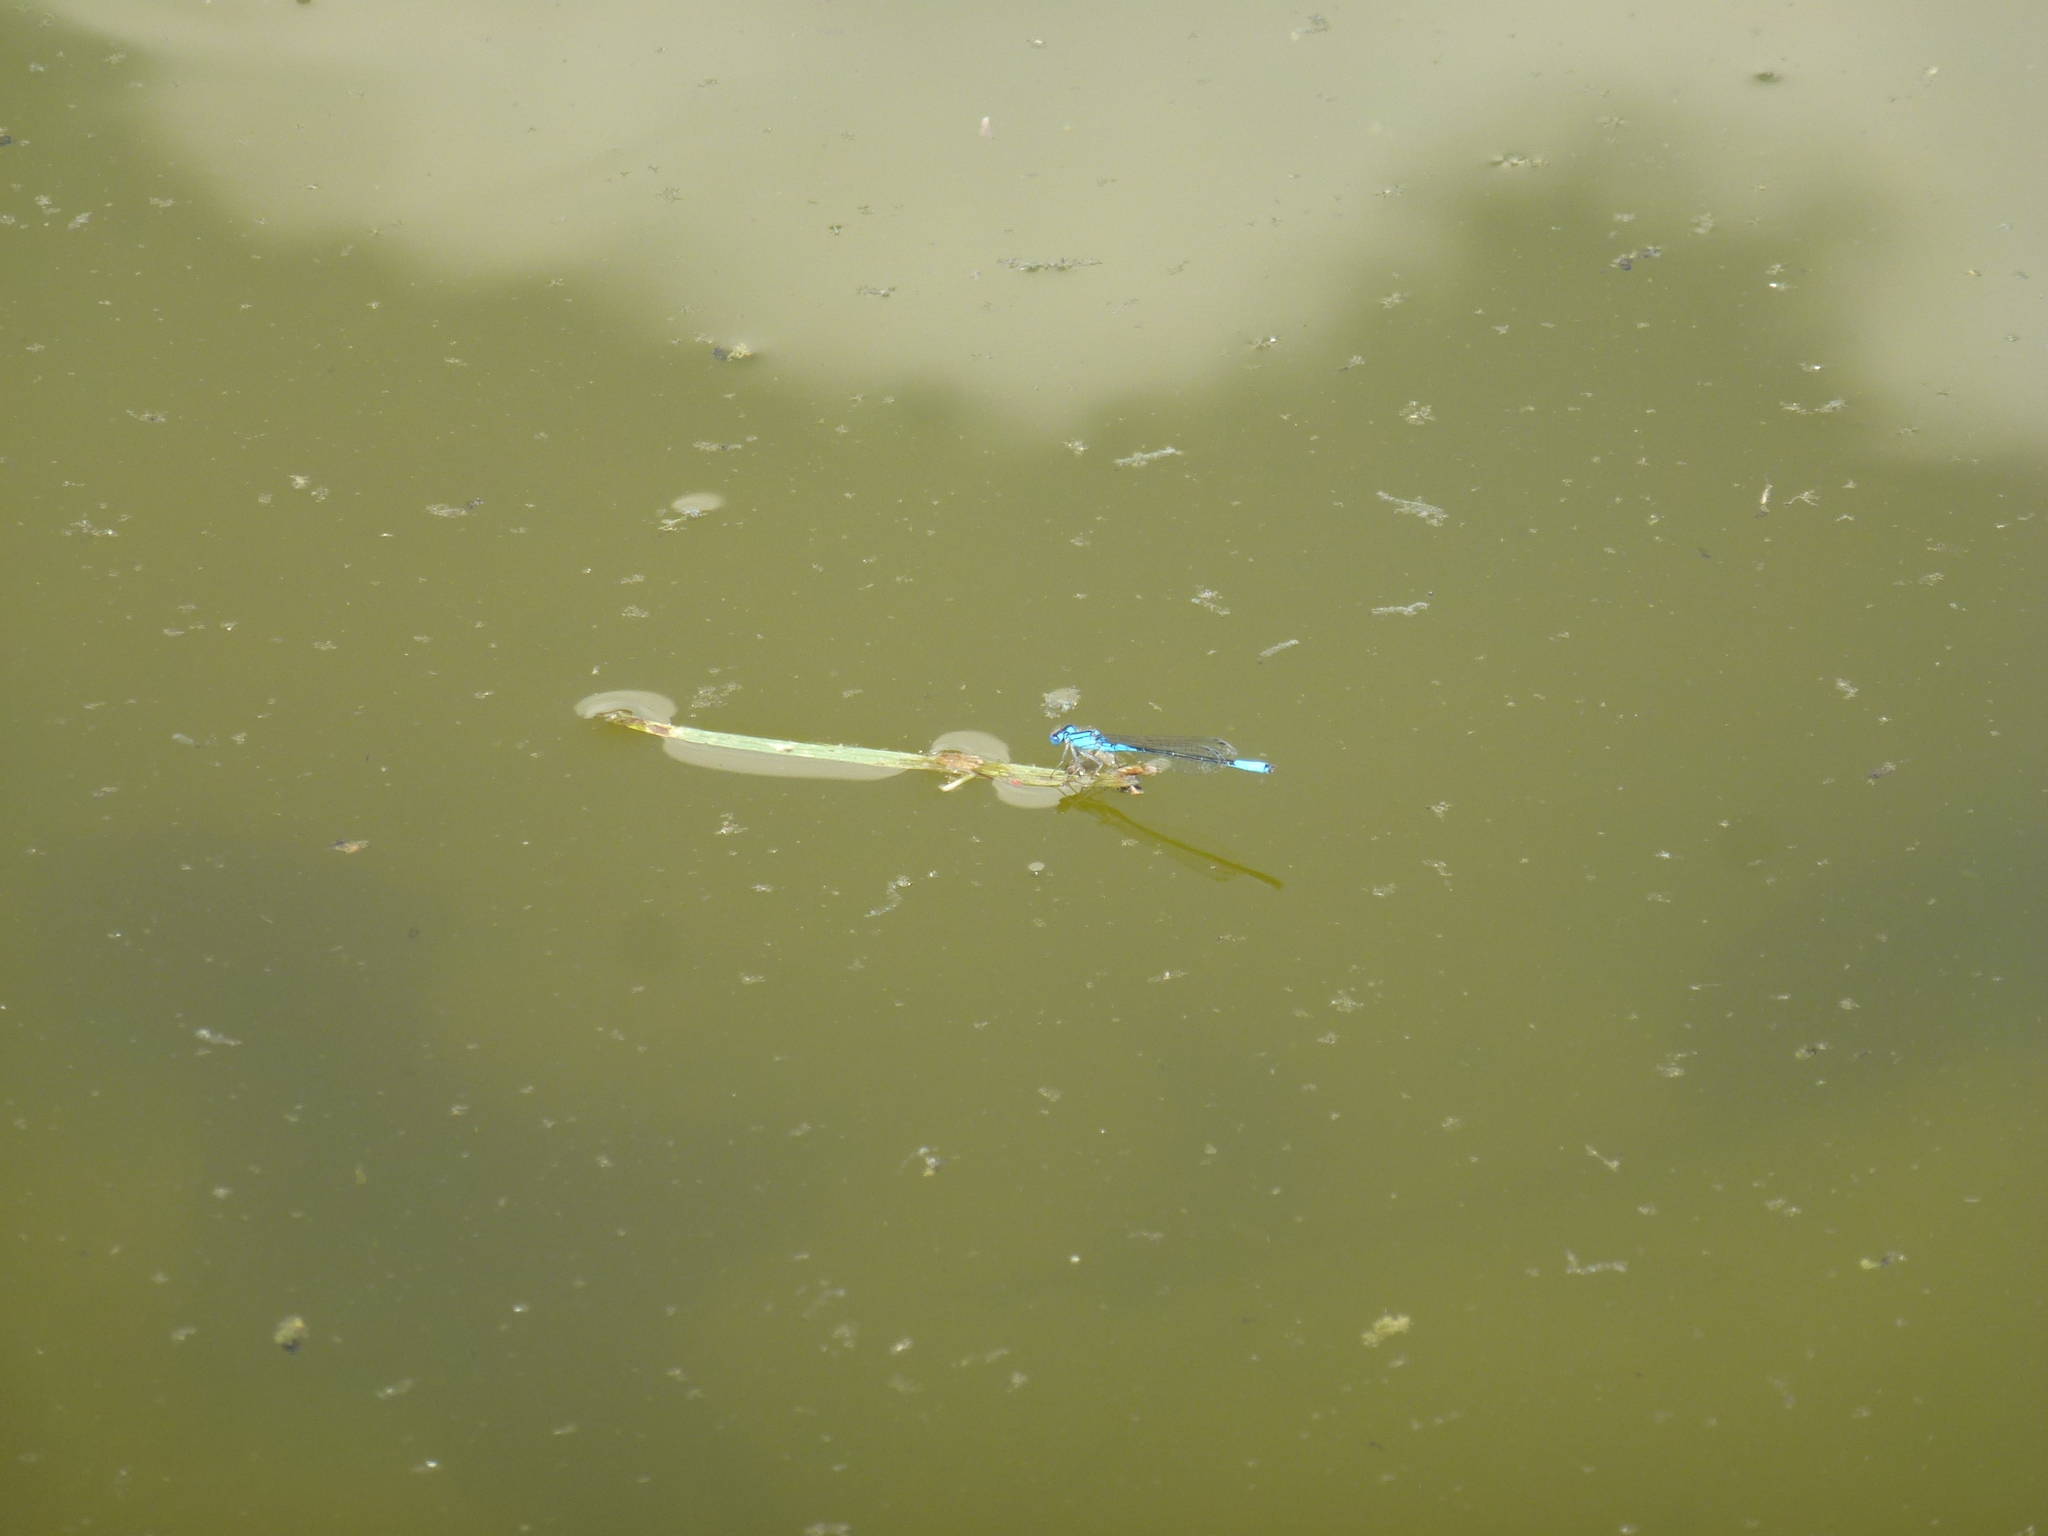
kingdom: Animalia
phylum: Arthropoda
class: Insecta
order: Odonata
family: Coenagrionidae
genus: Enallagma
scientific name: Enallagma aspersum
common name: Azure bluet
